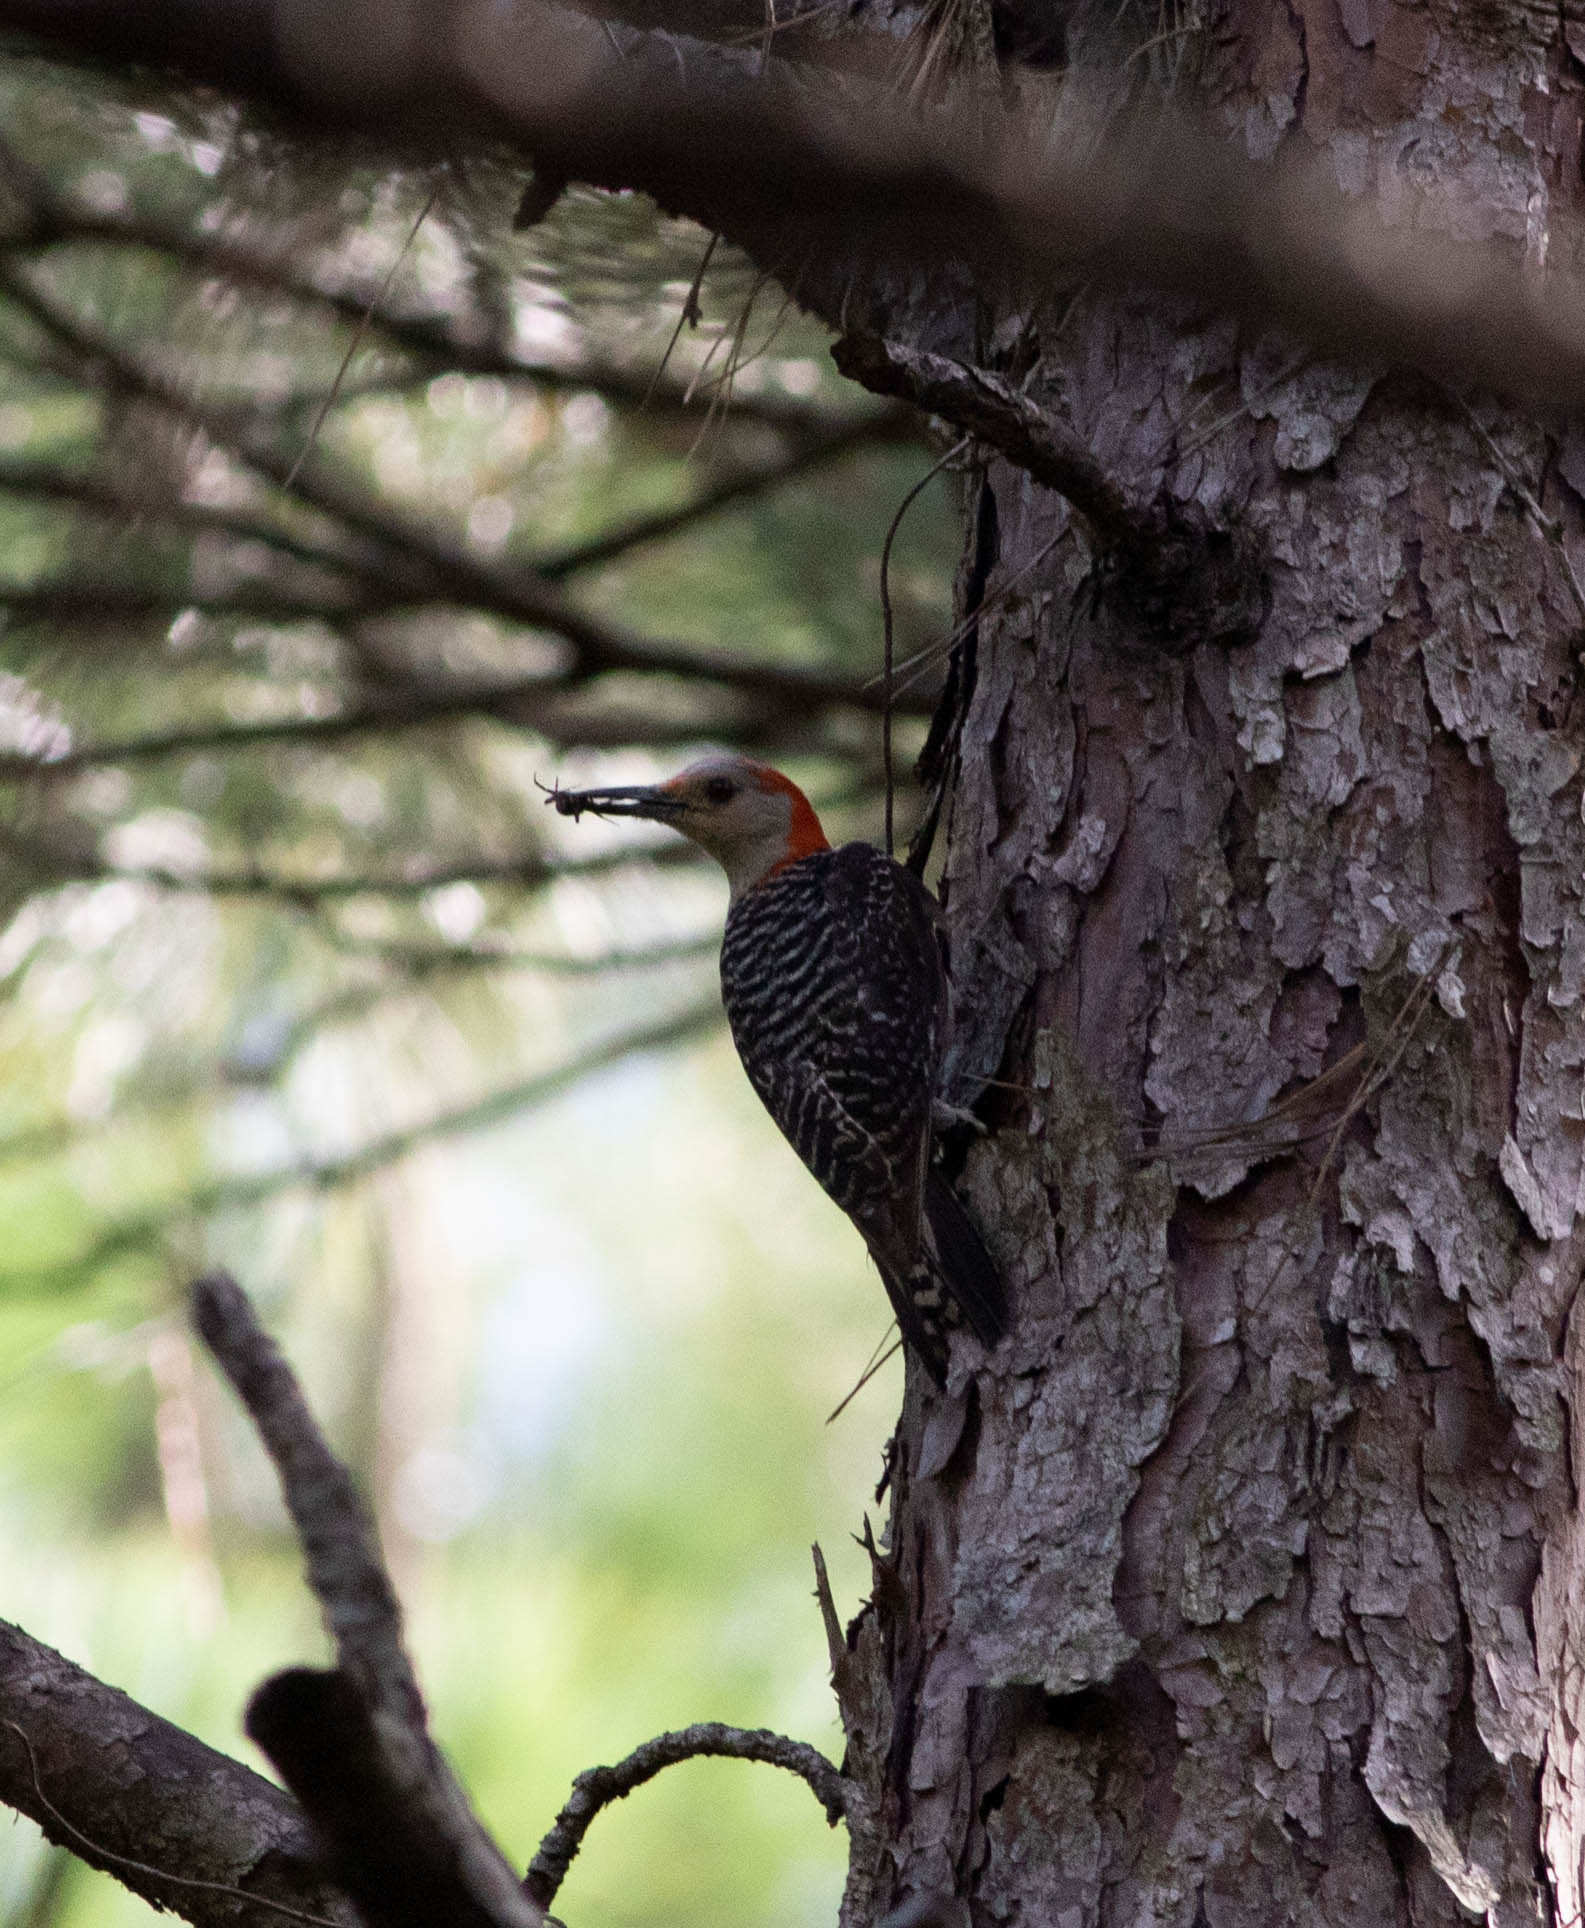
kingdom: Animalia
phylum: Chordata
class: Aves
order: Piciformes
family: Picidae
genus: Melanerpes
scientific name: Melanerpes carolinus
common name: Red-bellied woodpecker
